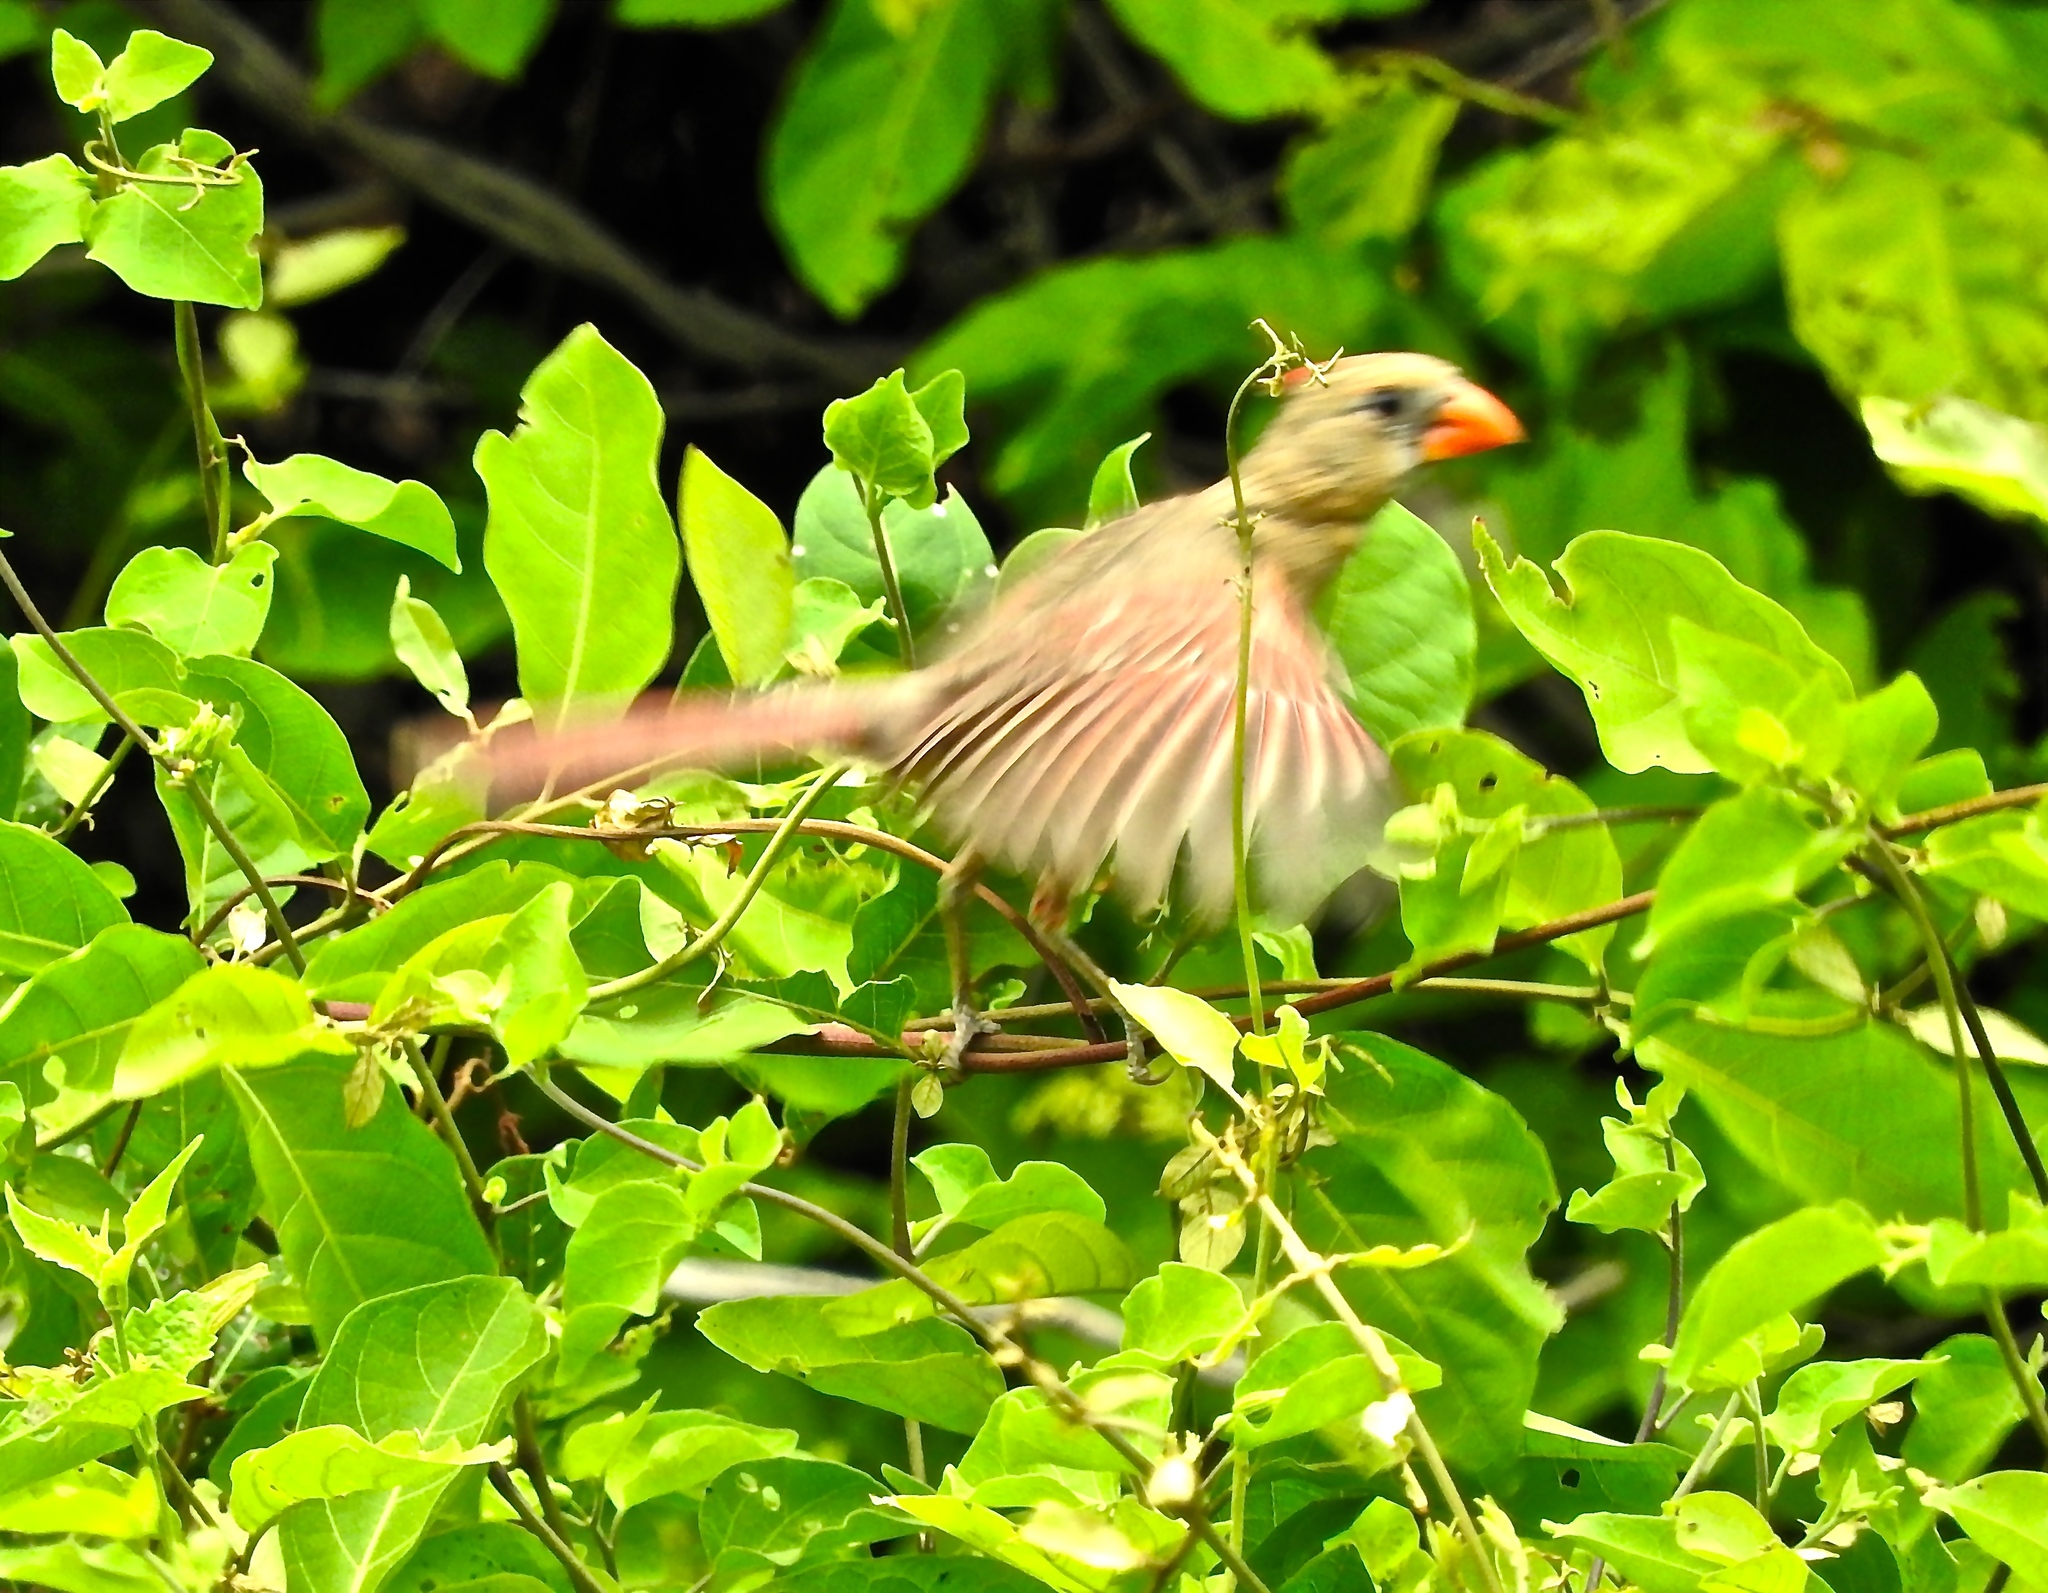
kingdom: Animalia
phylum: Chordata
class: Aves
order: Passeriformes
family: Cardinalidae
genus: Cardinalis
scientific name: Cardinalis cardinalis
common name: Northern cardinal
